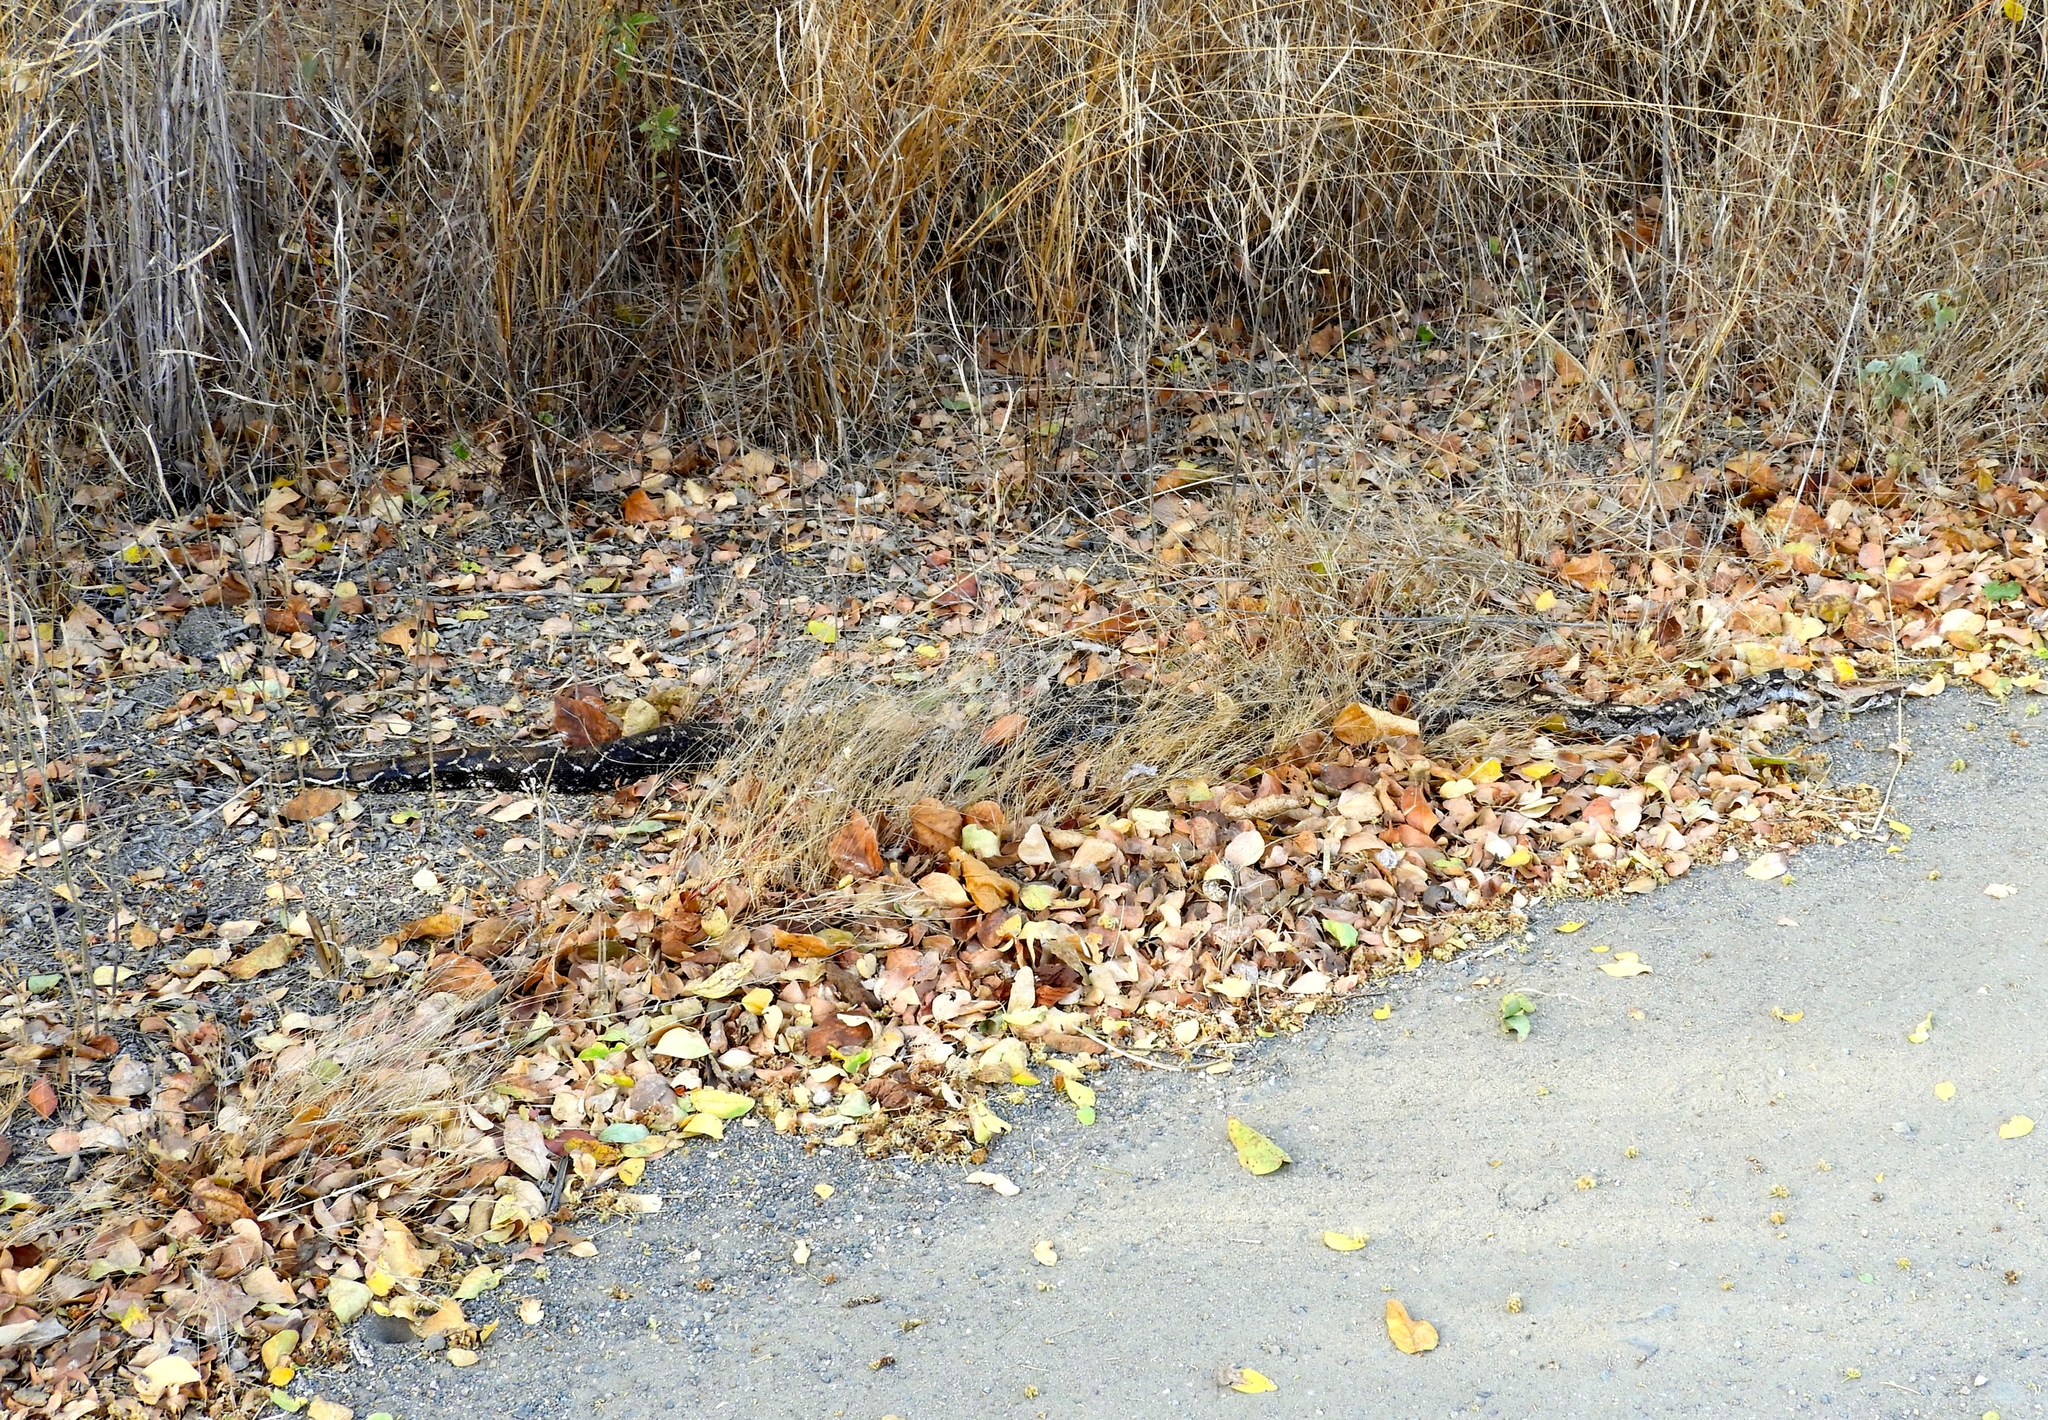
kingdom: Animalia
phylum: Chordata
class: Squamata
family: Boidae
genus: Boa
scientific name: Boa
